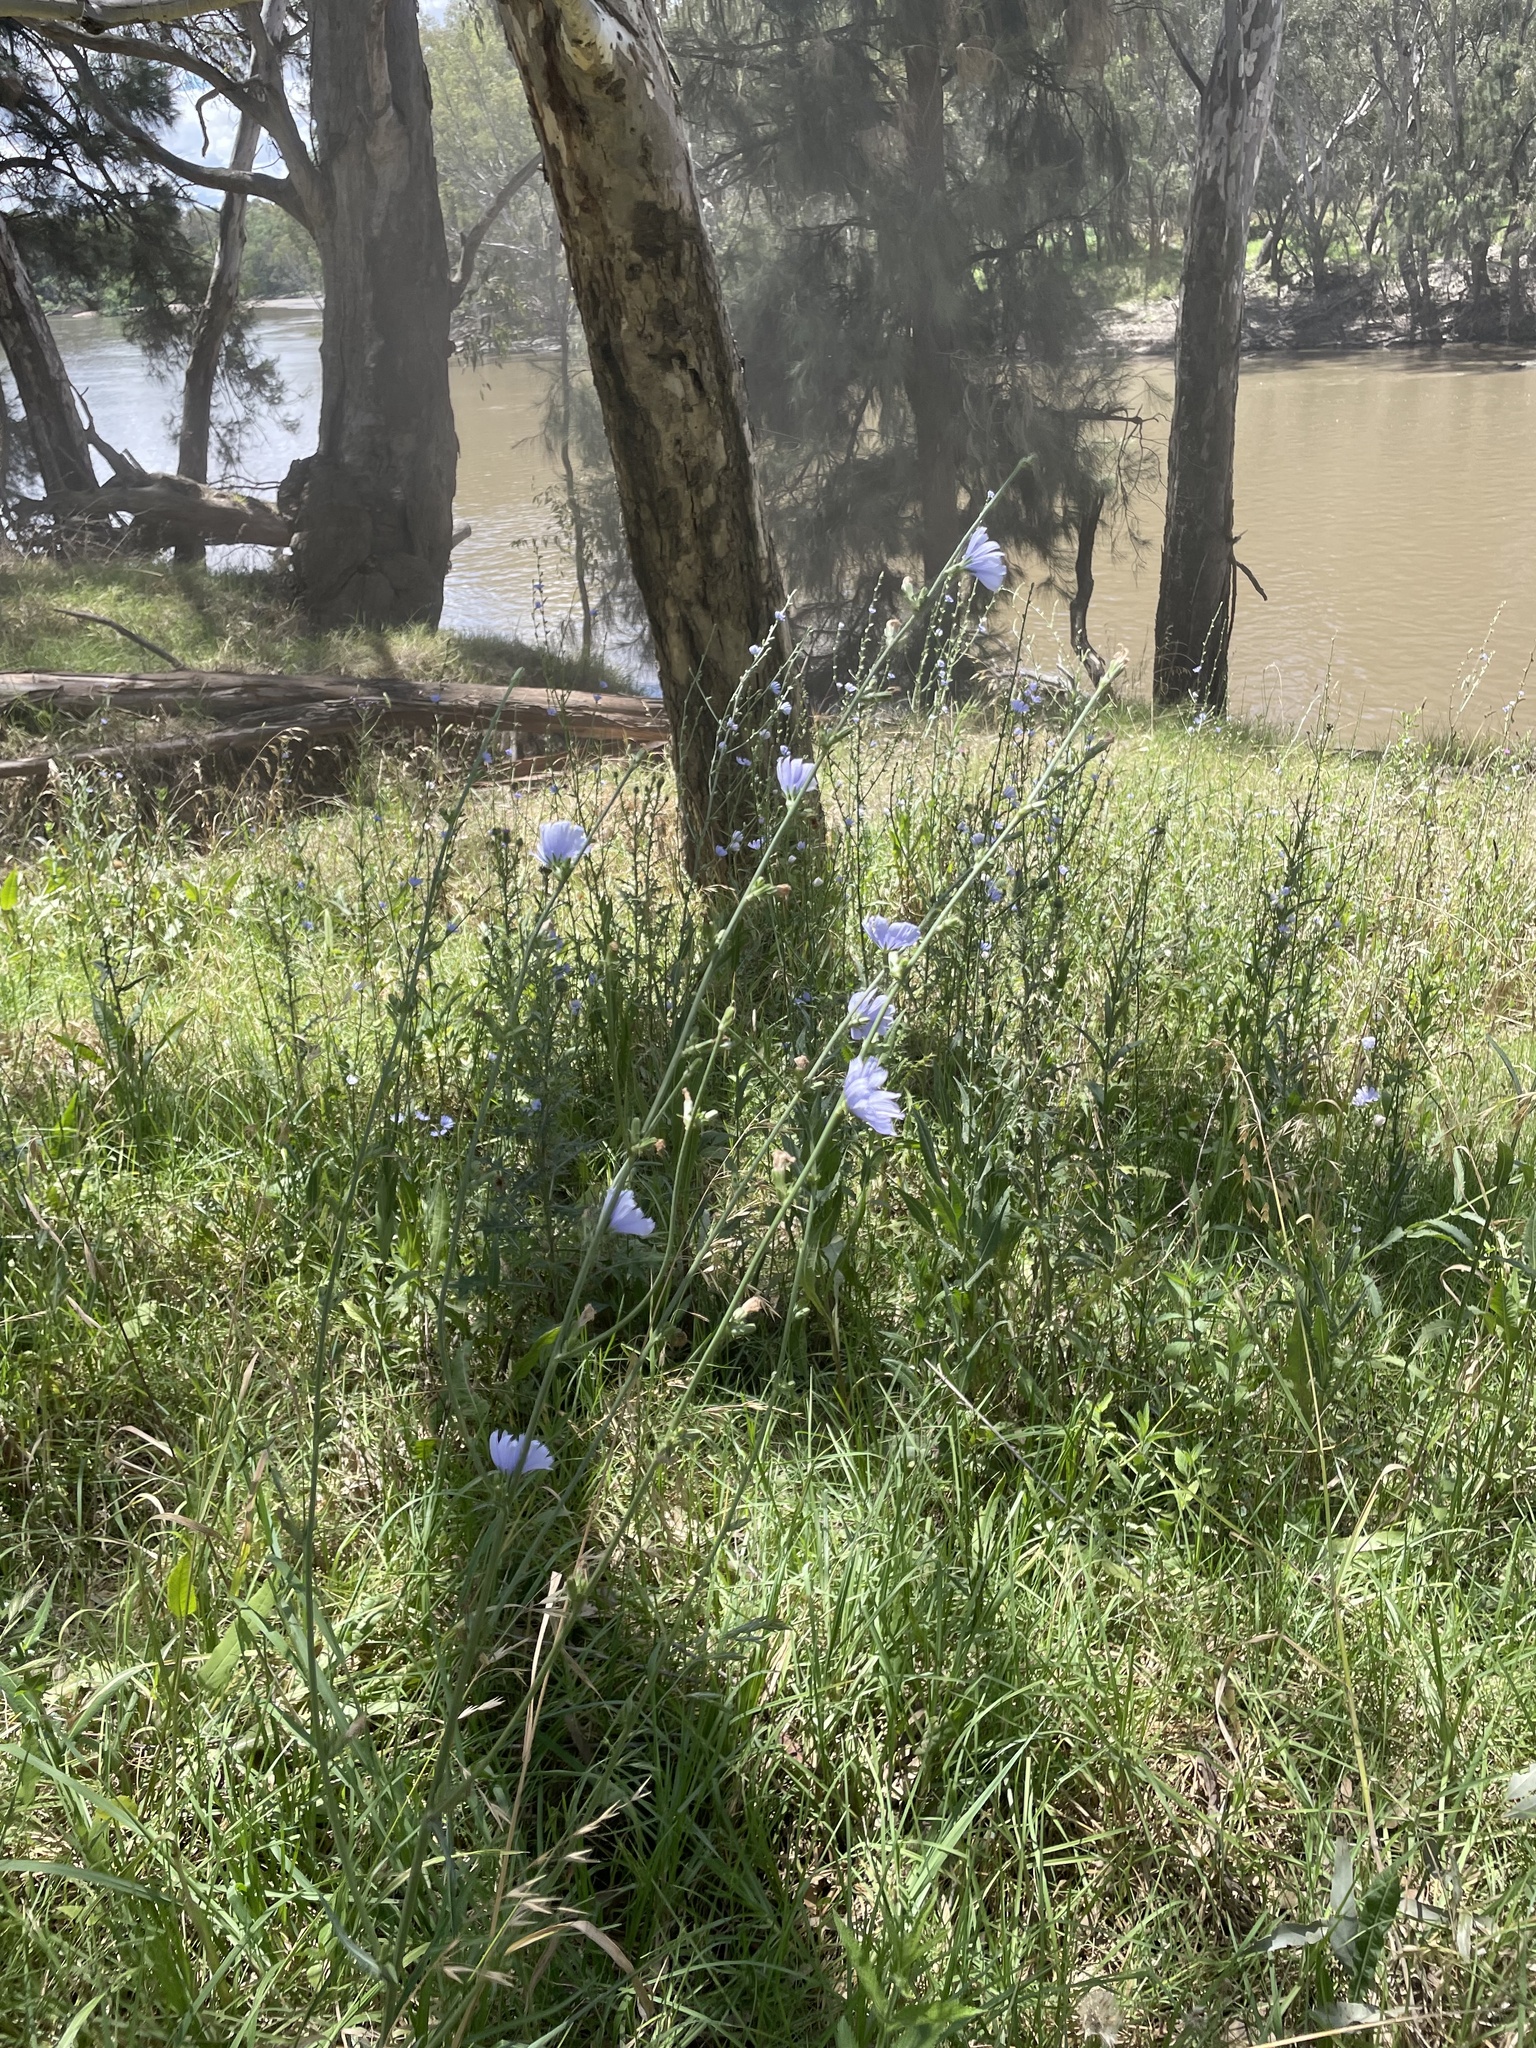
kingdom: Plantae
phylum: Tracheophyta
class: Magnoliopsida
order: Asterales
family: Asteraceae
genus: Cichorium
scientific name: Cichorium intybus
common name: Chicory
